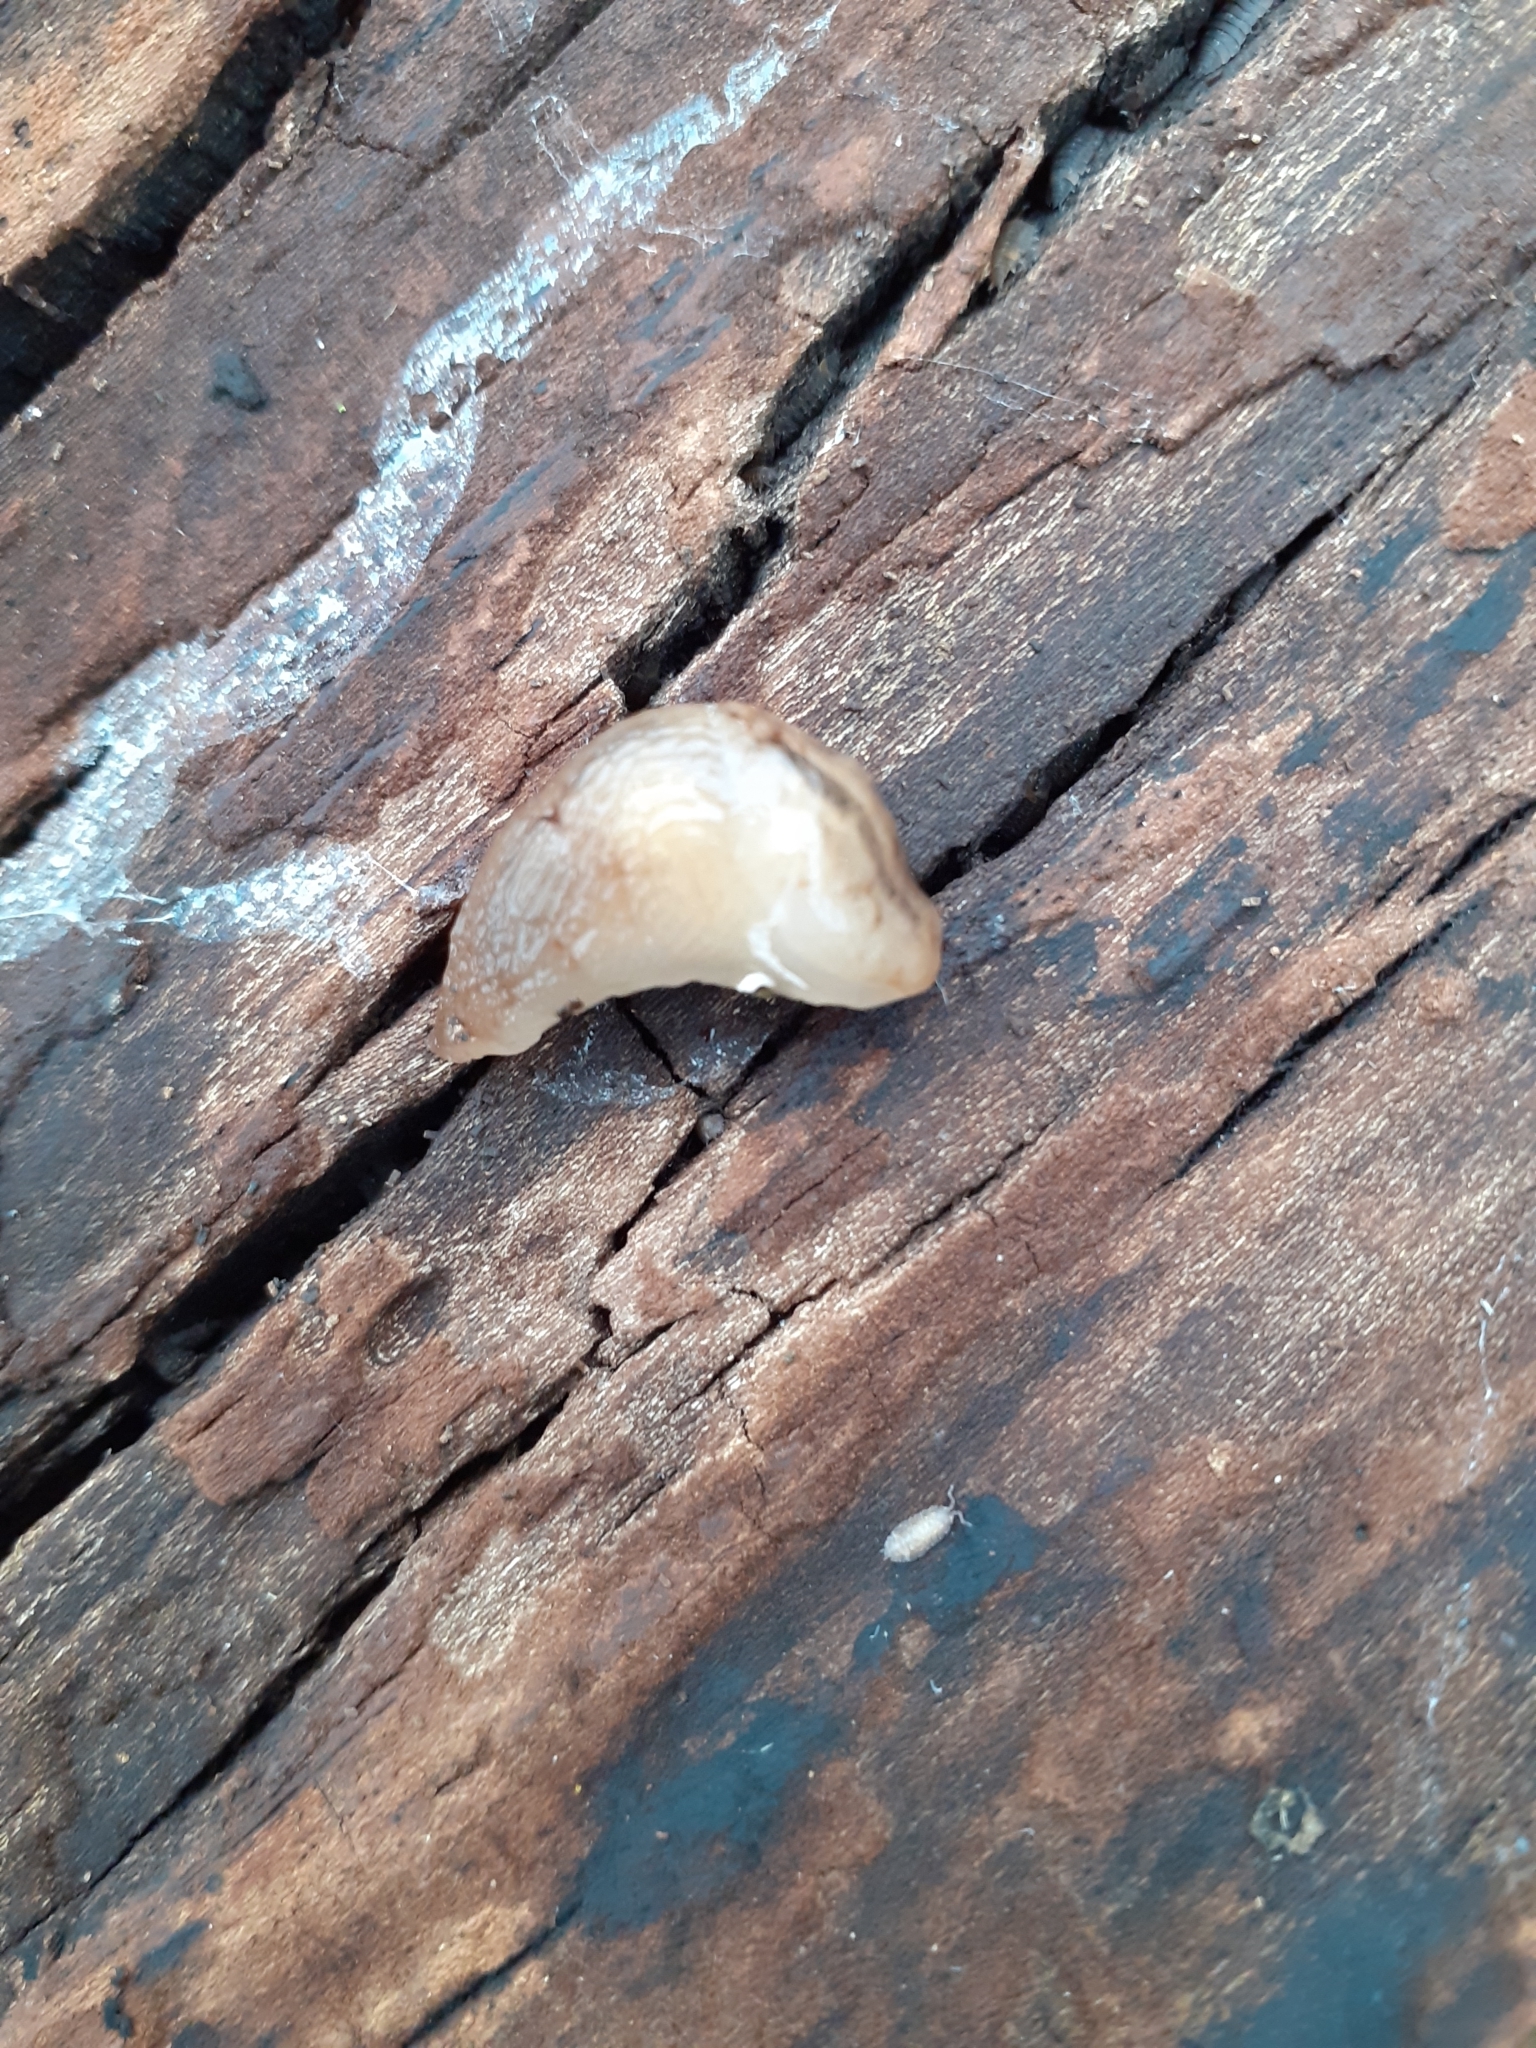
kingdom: Animalia
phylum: Mollusca
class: Gastropoda
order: Stylommatophora
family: Limacidae
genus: Ambigolimax
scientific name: Ambigolimax valentianus
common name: Greenhouse slug
